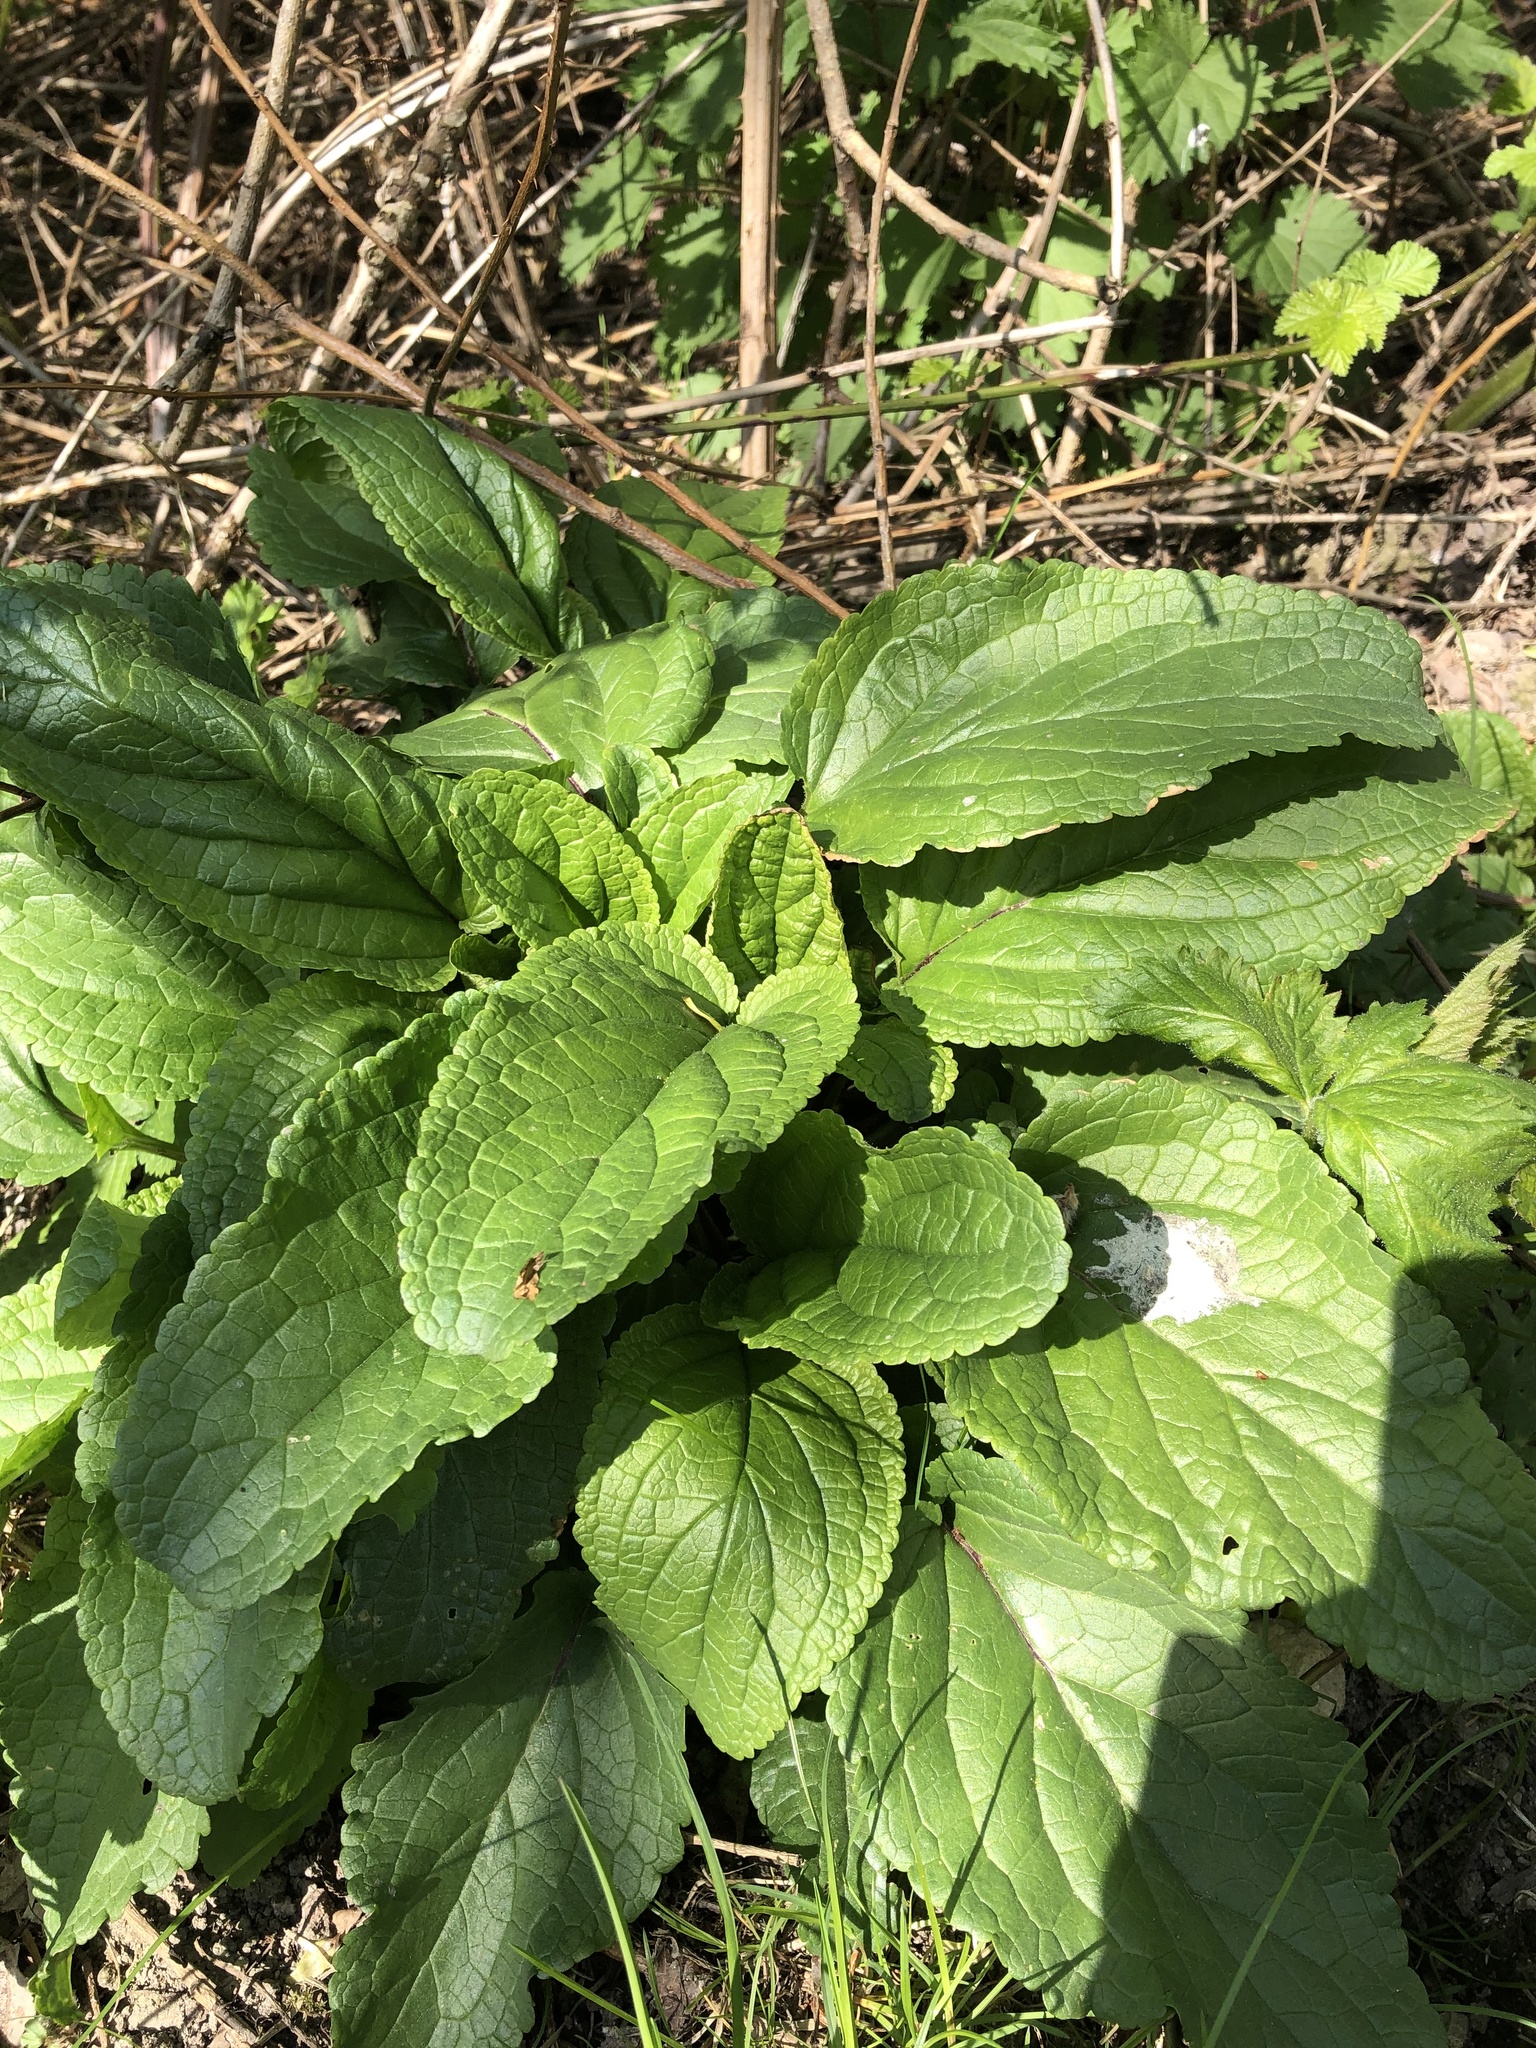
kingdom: Plantae
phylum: Tracheophyta
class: Magnoliopsida
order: Lamiales
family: Scrophulariaceae
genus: Scrophularia
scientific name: Scrophularia auriculata
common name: Water betony
